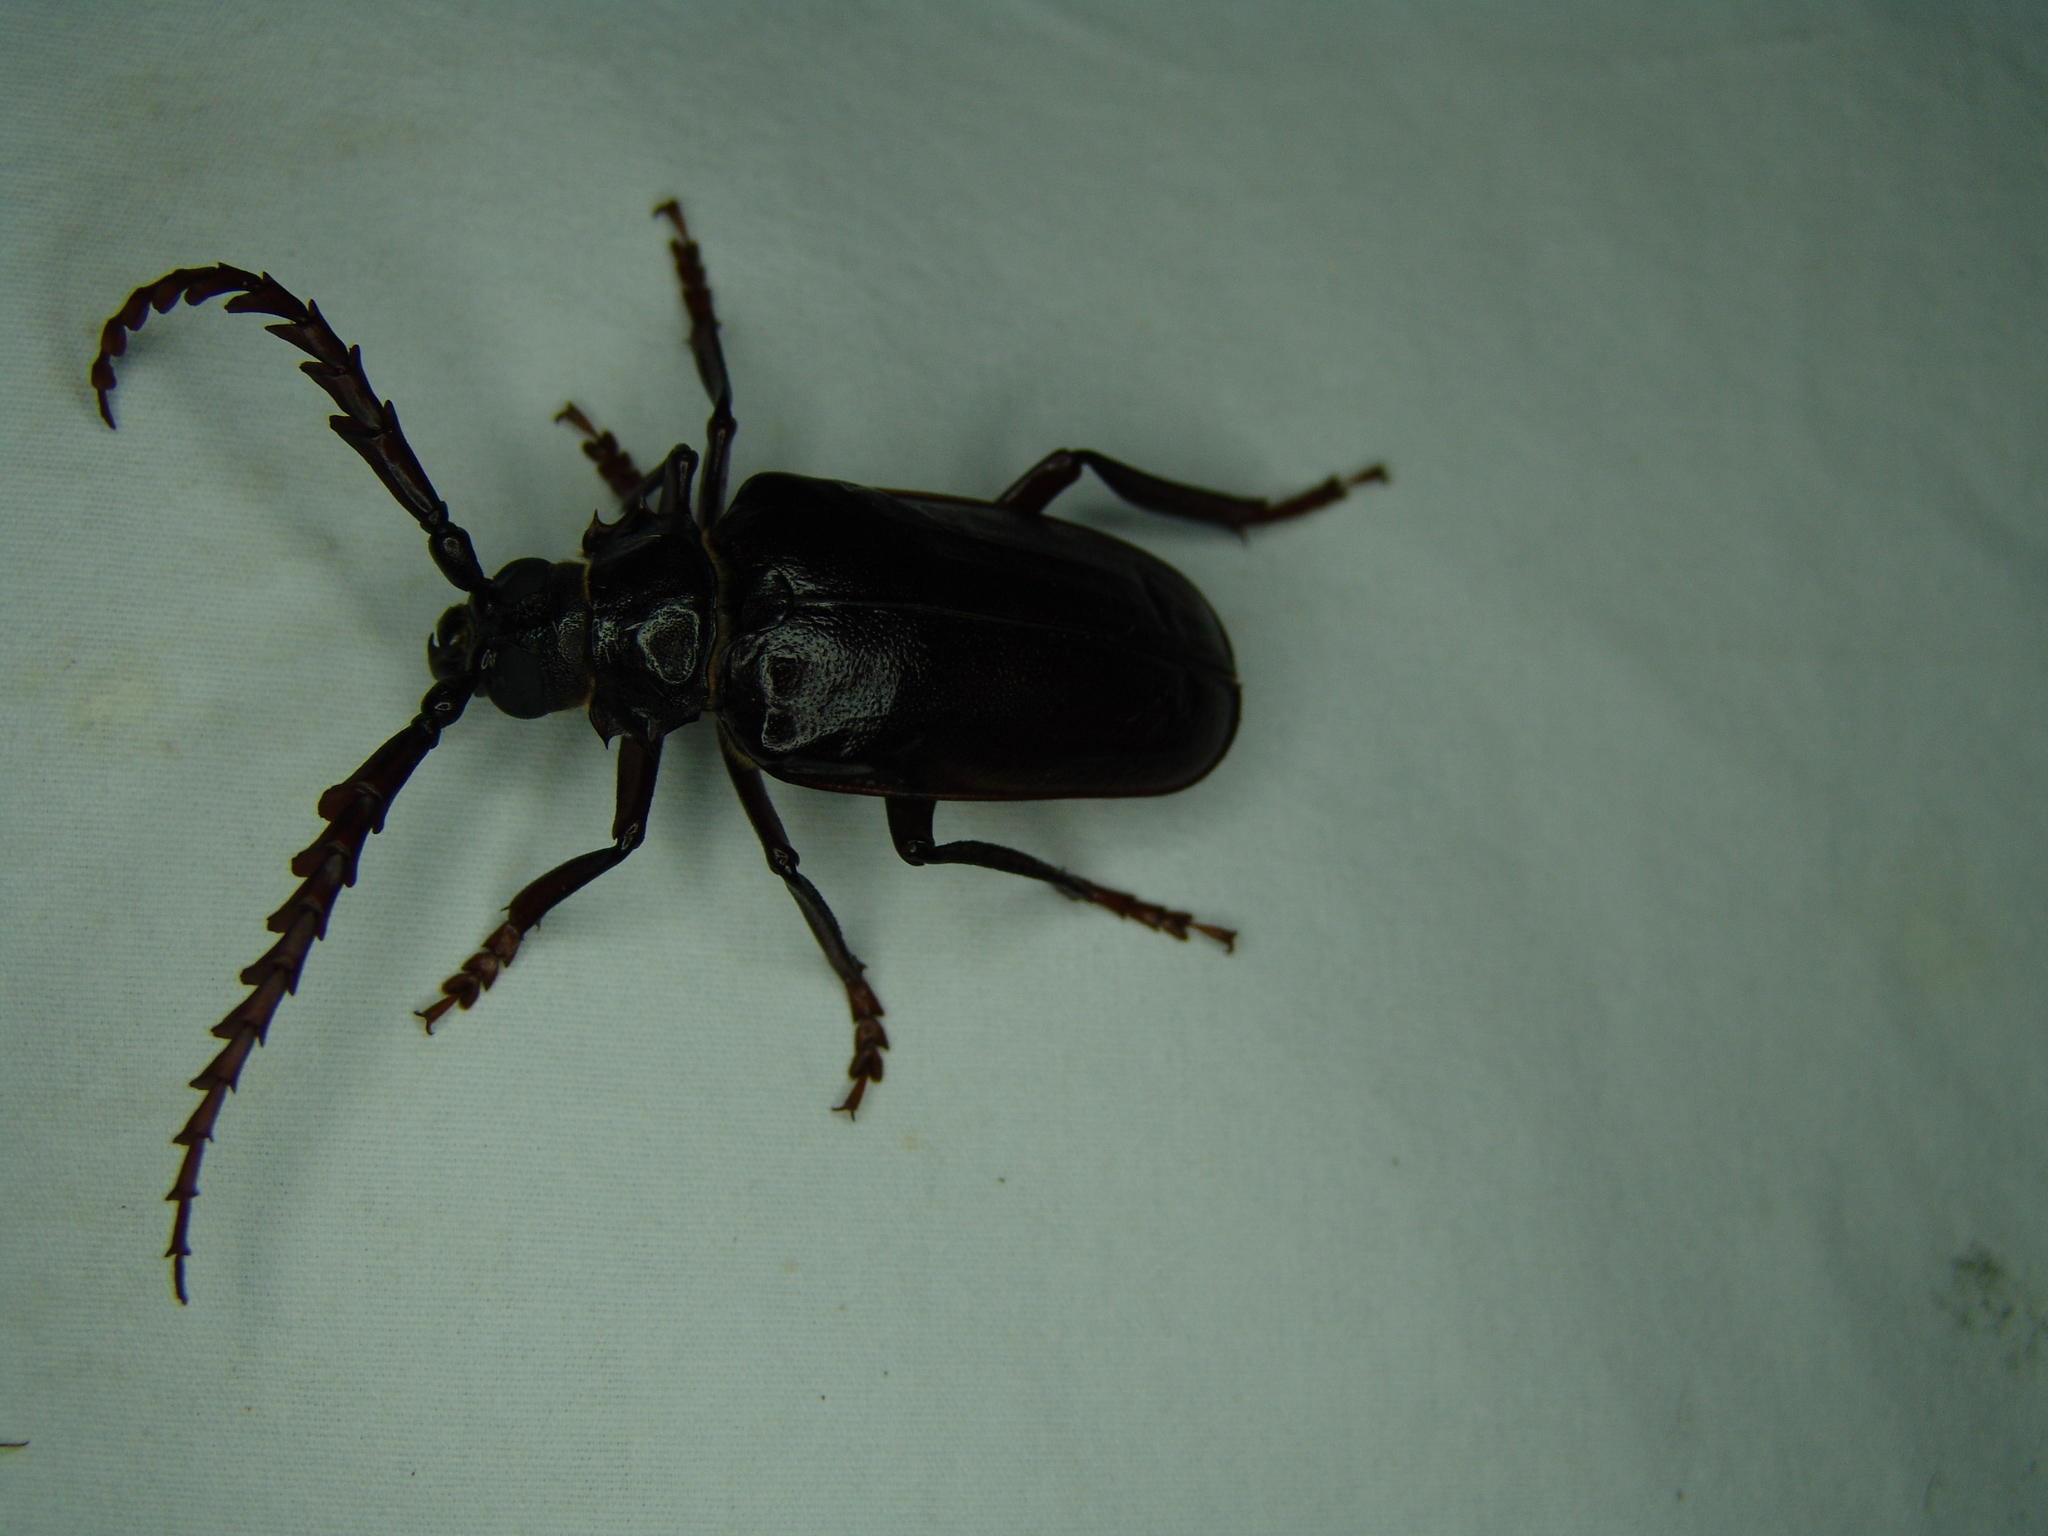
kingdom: Animalia
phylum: Arthropoda
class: Insecta
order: Coleoptera
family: Cerambycidae
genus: Prionus
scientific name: Prionus heroicus
